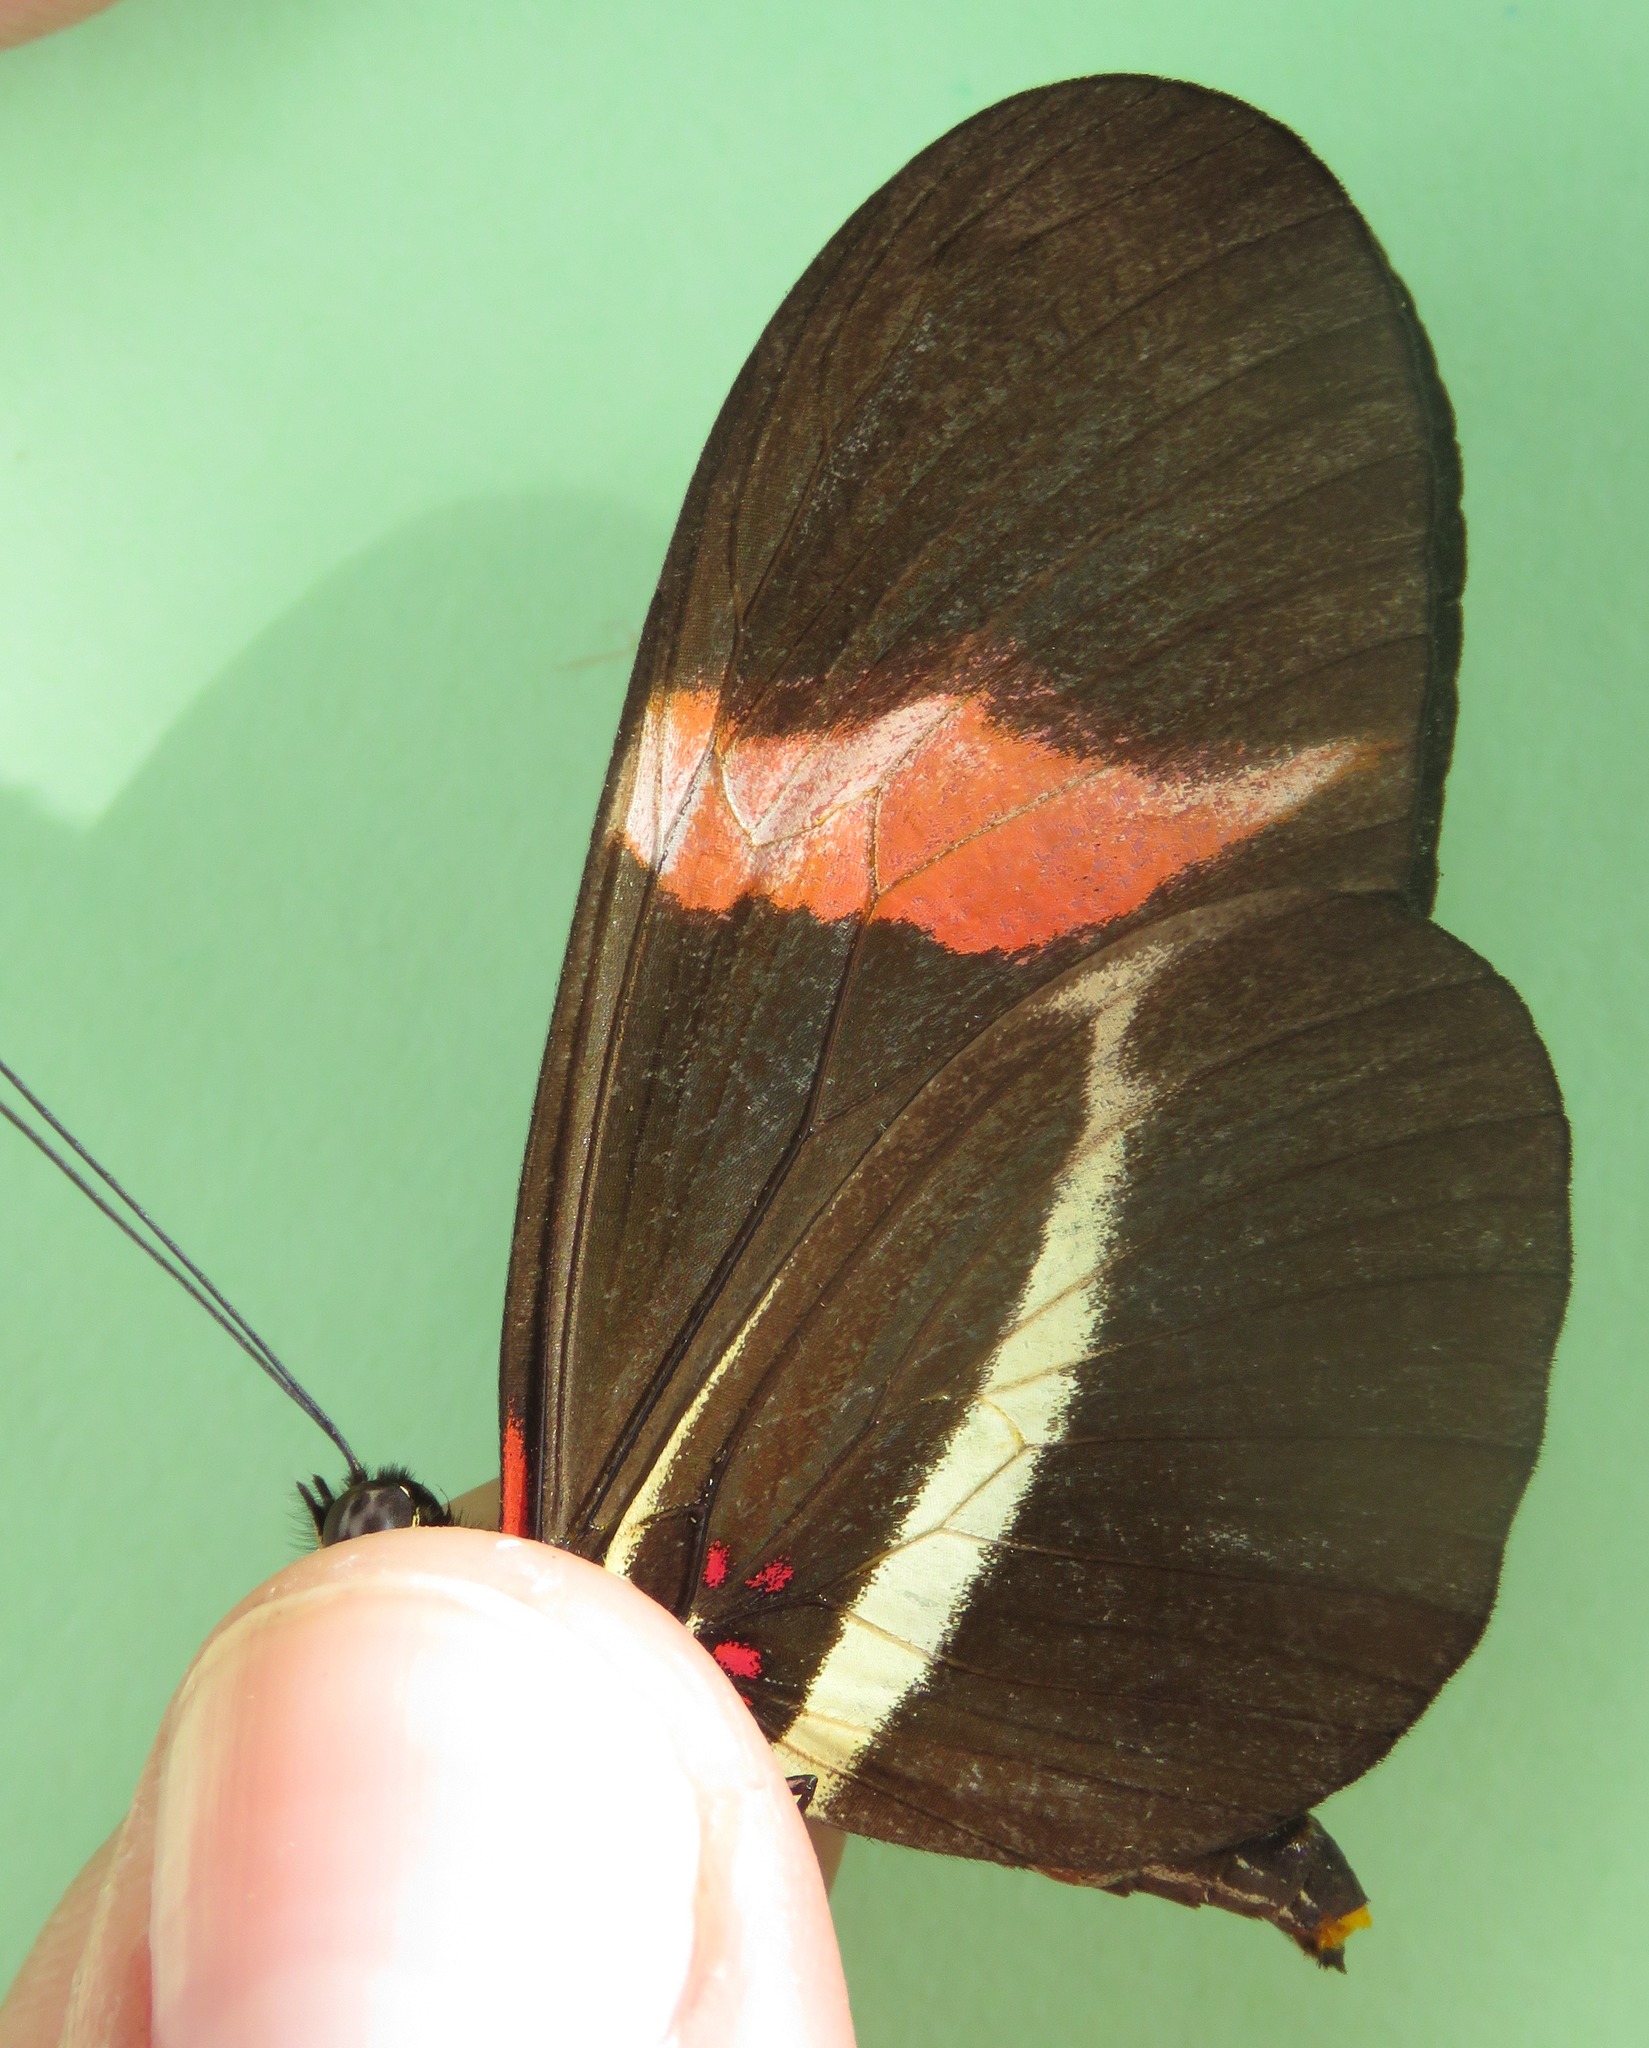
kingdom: Animalia
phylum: Arthropoda
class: Insecta
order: Lepidoptera
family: Nymphalidae
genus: Tirumala
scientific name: Tirumala petiverana
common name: Blue monarch
